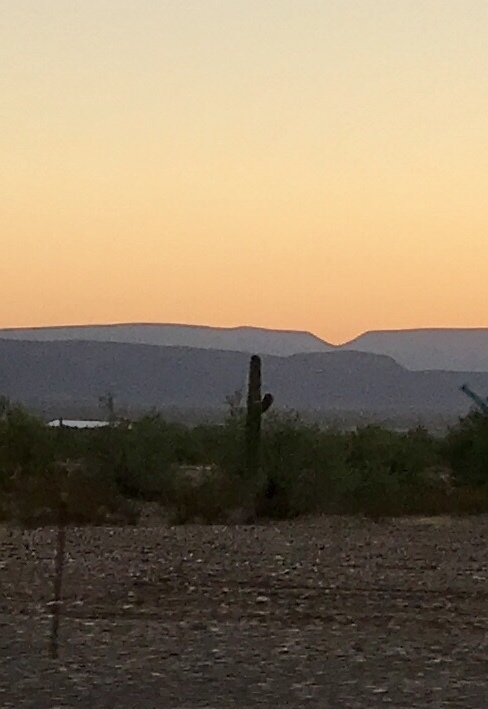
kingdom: Plantae
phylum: Tracheophyta
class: Magnoliopsida
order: Caryophyllales
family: Cactaceae
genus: Carnegiea
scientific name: Carnegiea gigantea
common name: Saguaro
